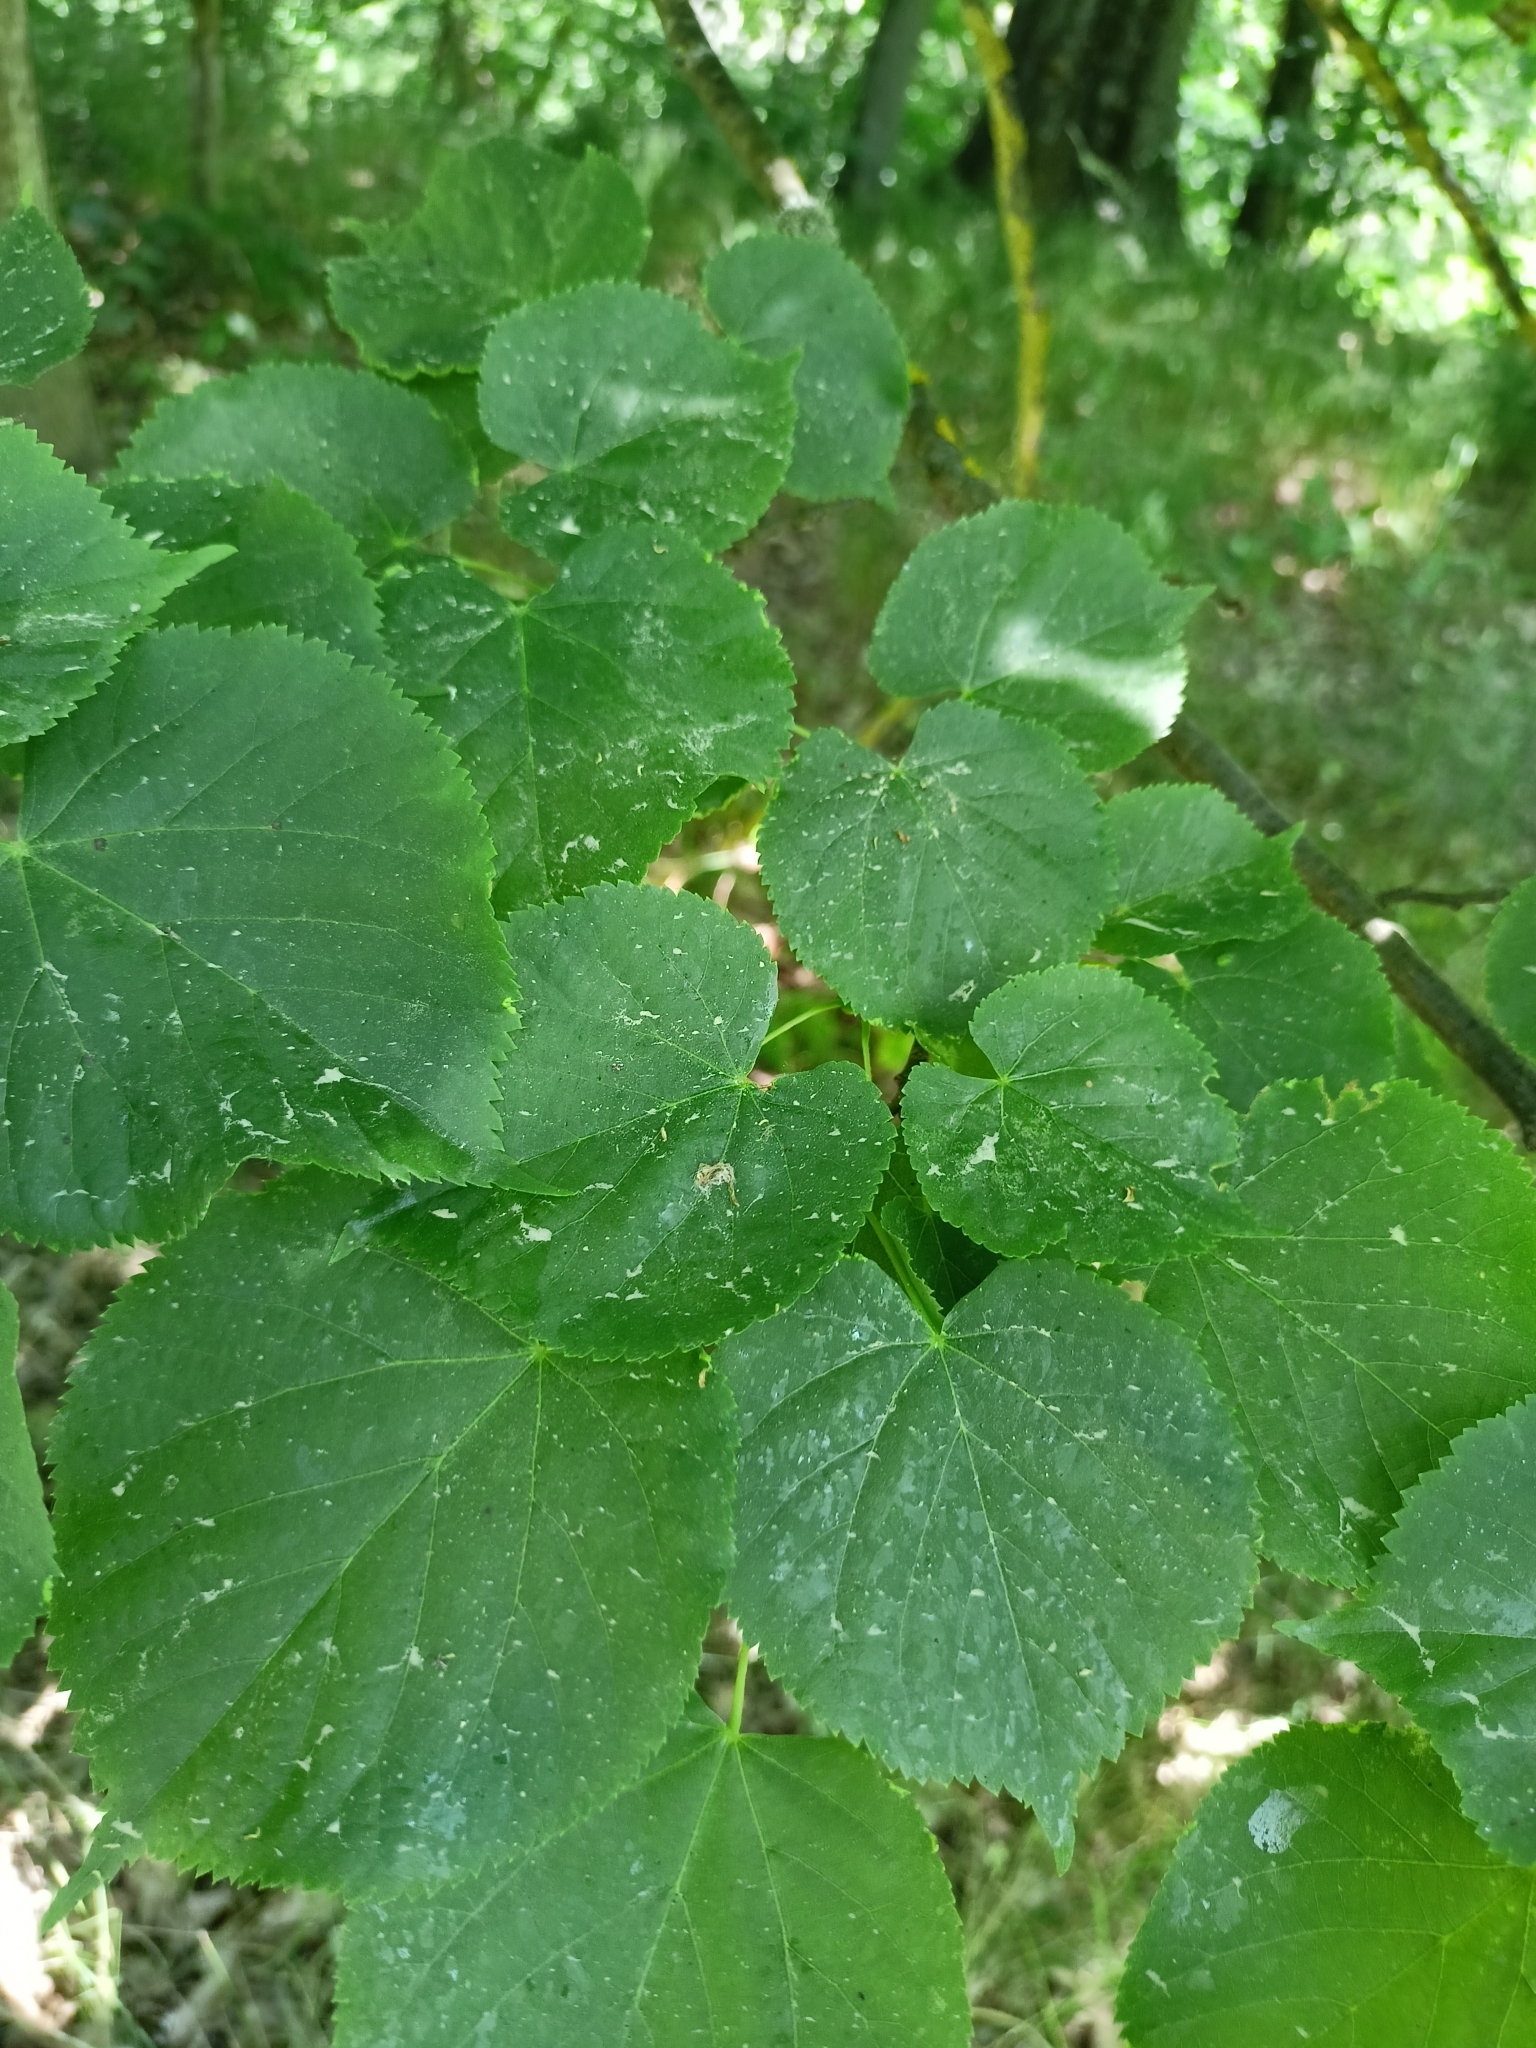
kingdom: Plantae
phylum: Tracheophyta
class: Magnoliopsida
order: Malvales
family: Malvaceae
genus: Tilia
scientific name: Tilia cordata
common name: Small-leaved lime
